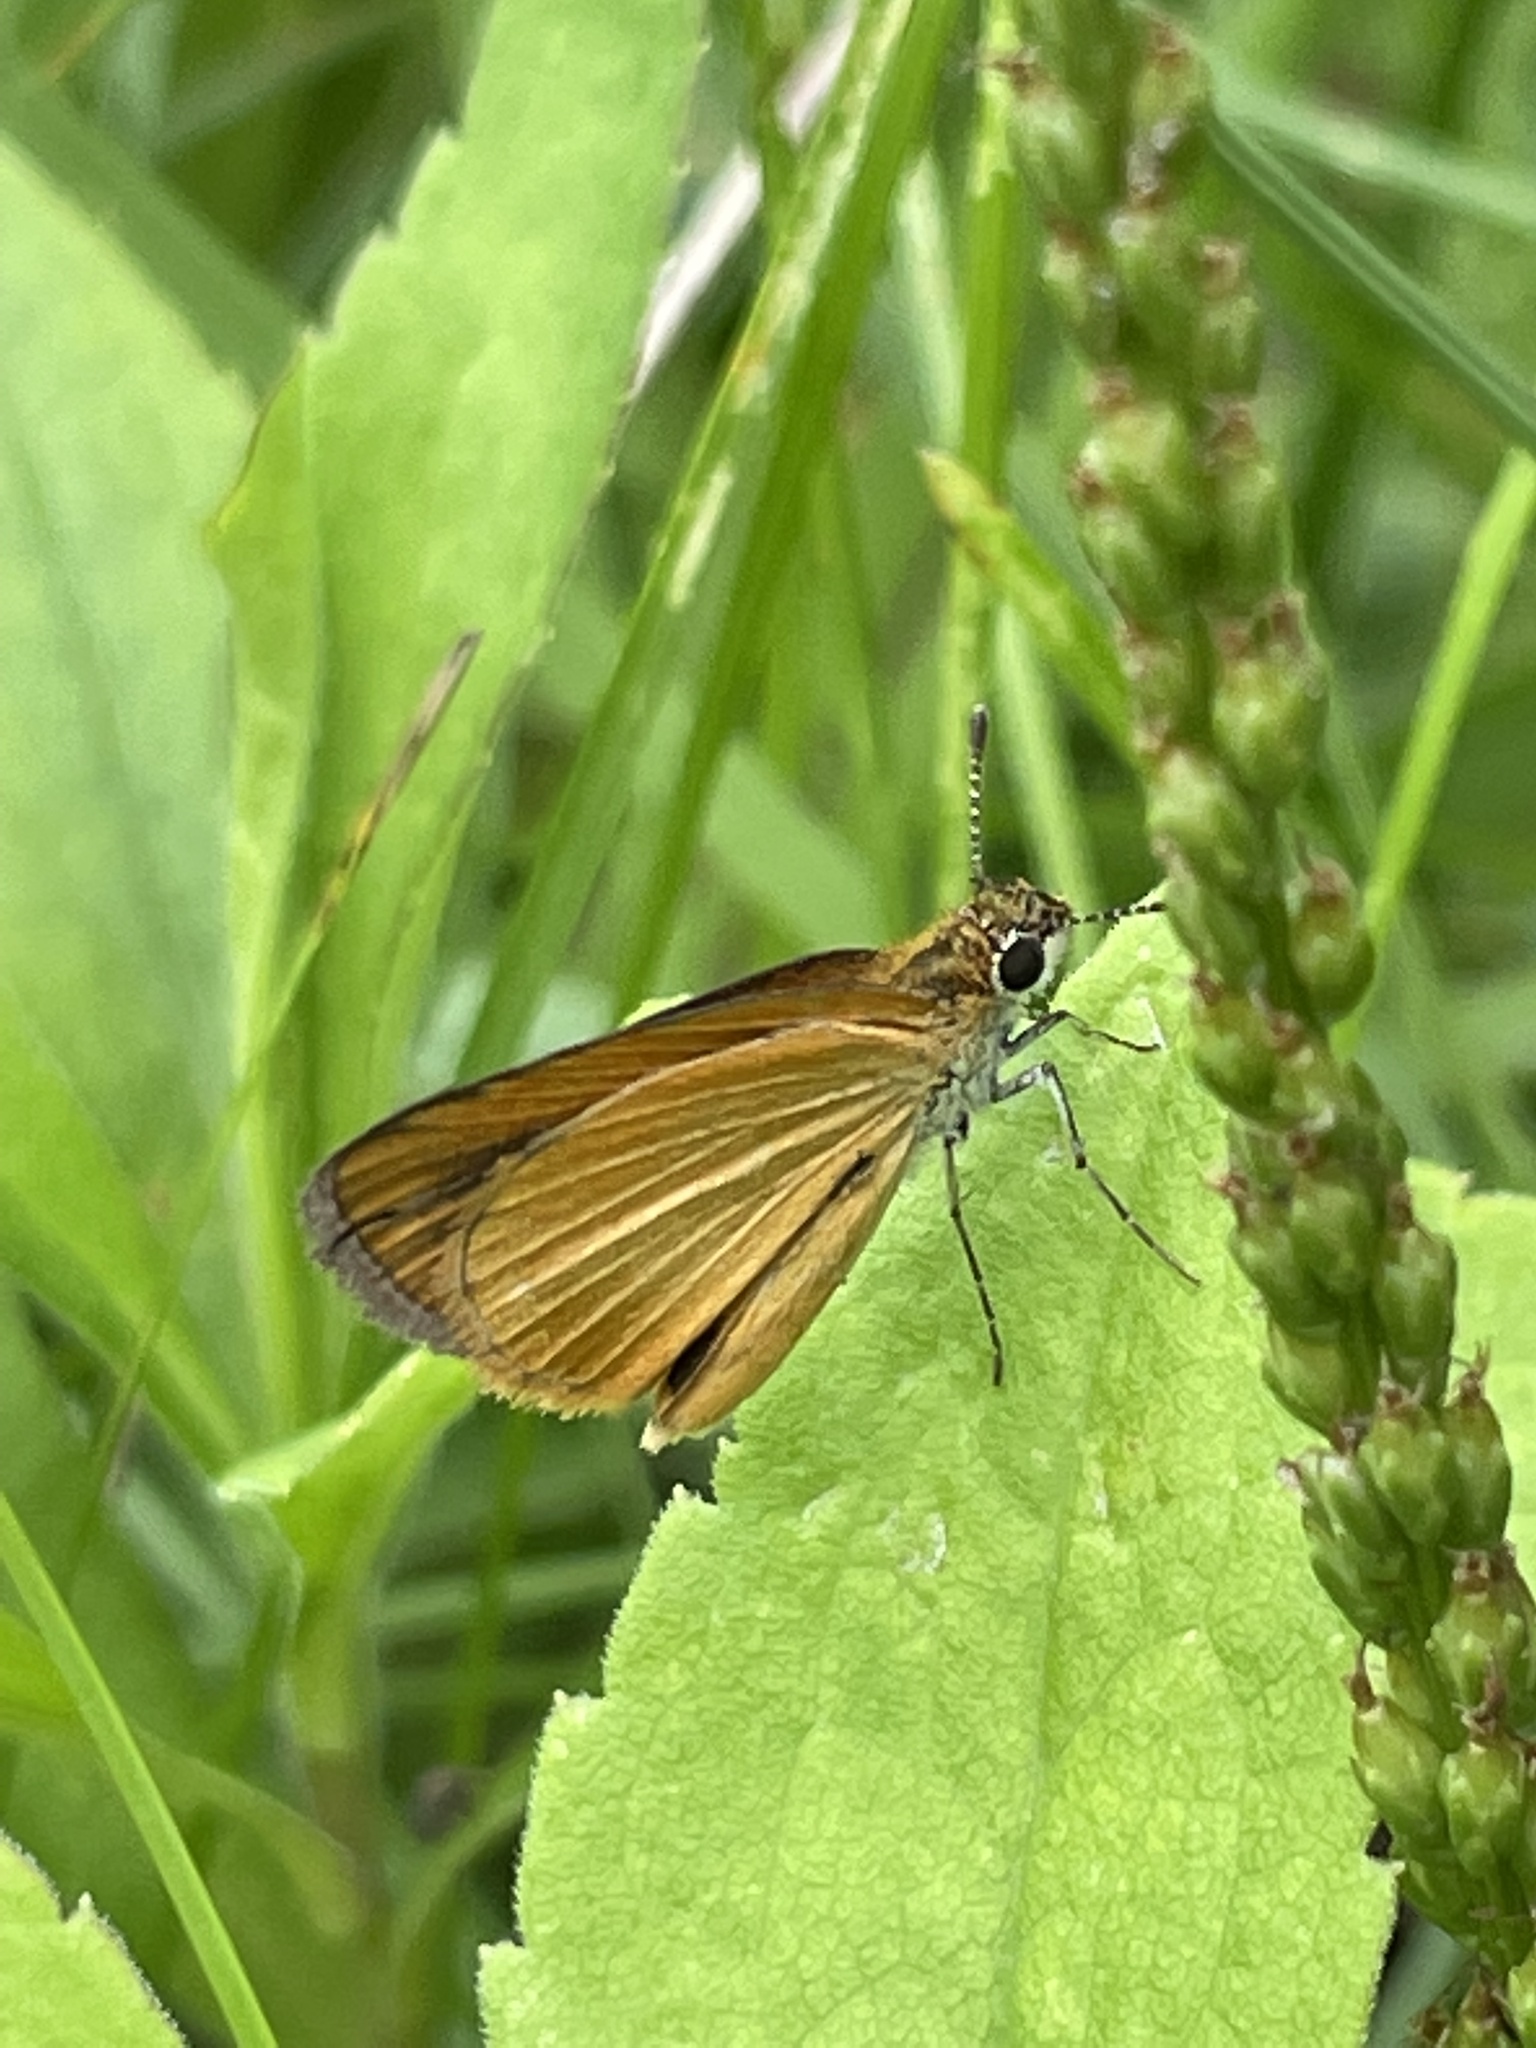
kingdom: Animalia
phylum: Arthropoda
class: Insecta
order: Lepidoptera
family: Hesperiidae
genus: Ancyloxypha
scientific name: Ancyloxypha numitor
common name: Least skipper
